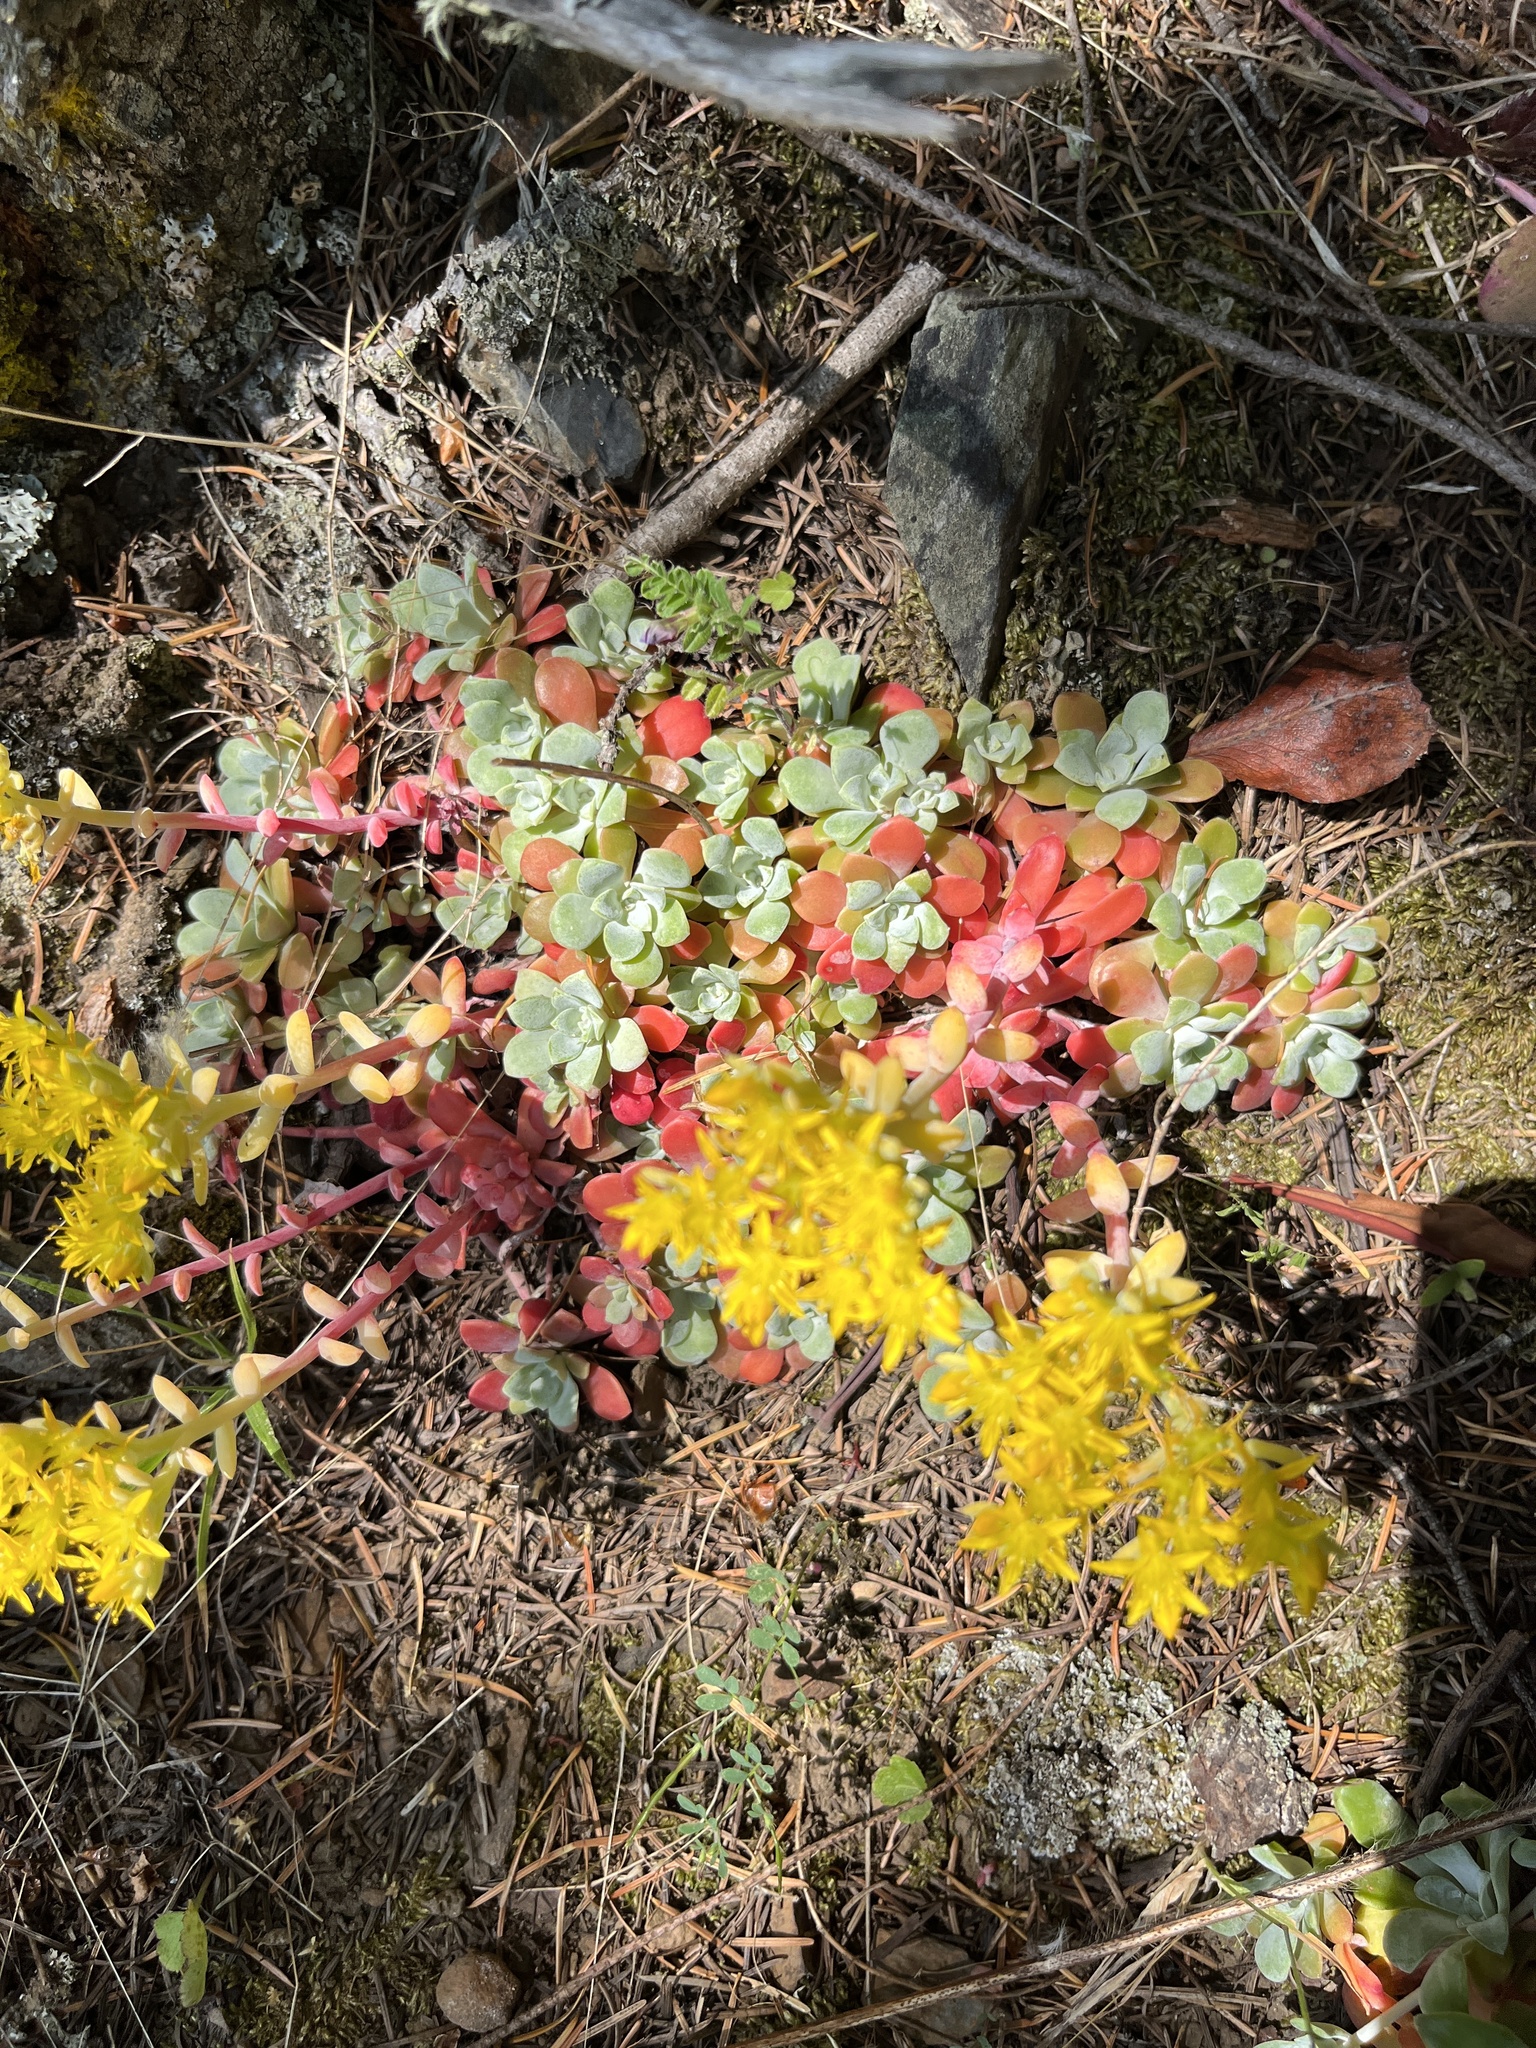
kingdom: Plantae
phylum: Tracheophyta
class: Magnoliopsida
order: Saxifragales
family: Crassulaceae
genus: Sedum
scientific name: Sedum spathulifolium
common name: Colorado stonecrop
